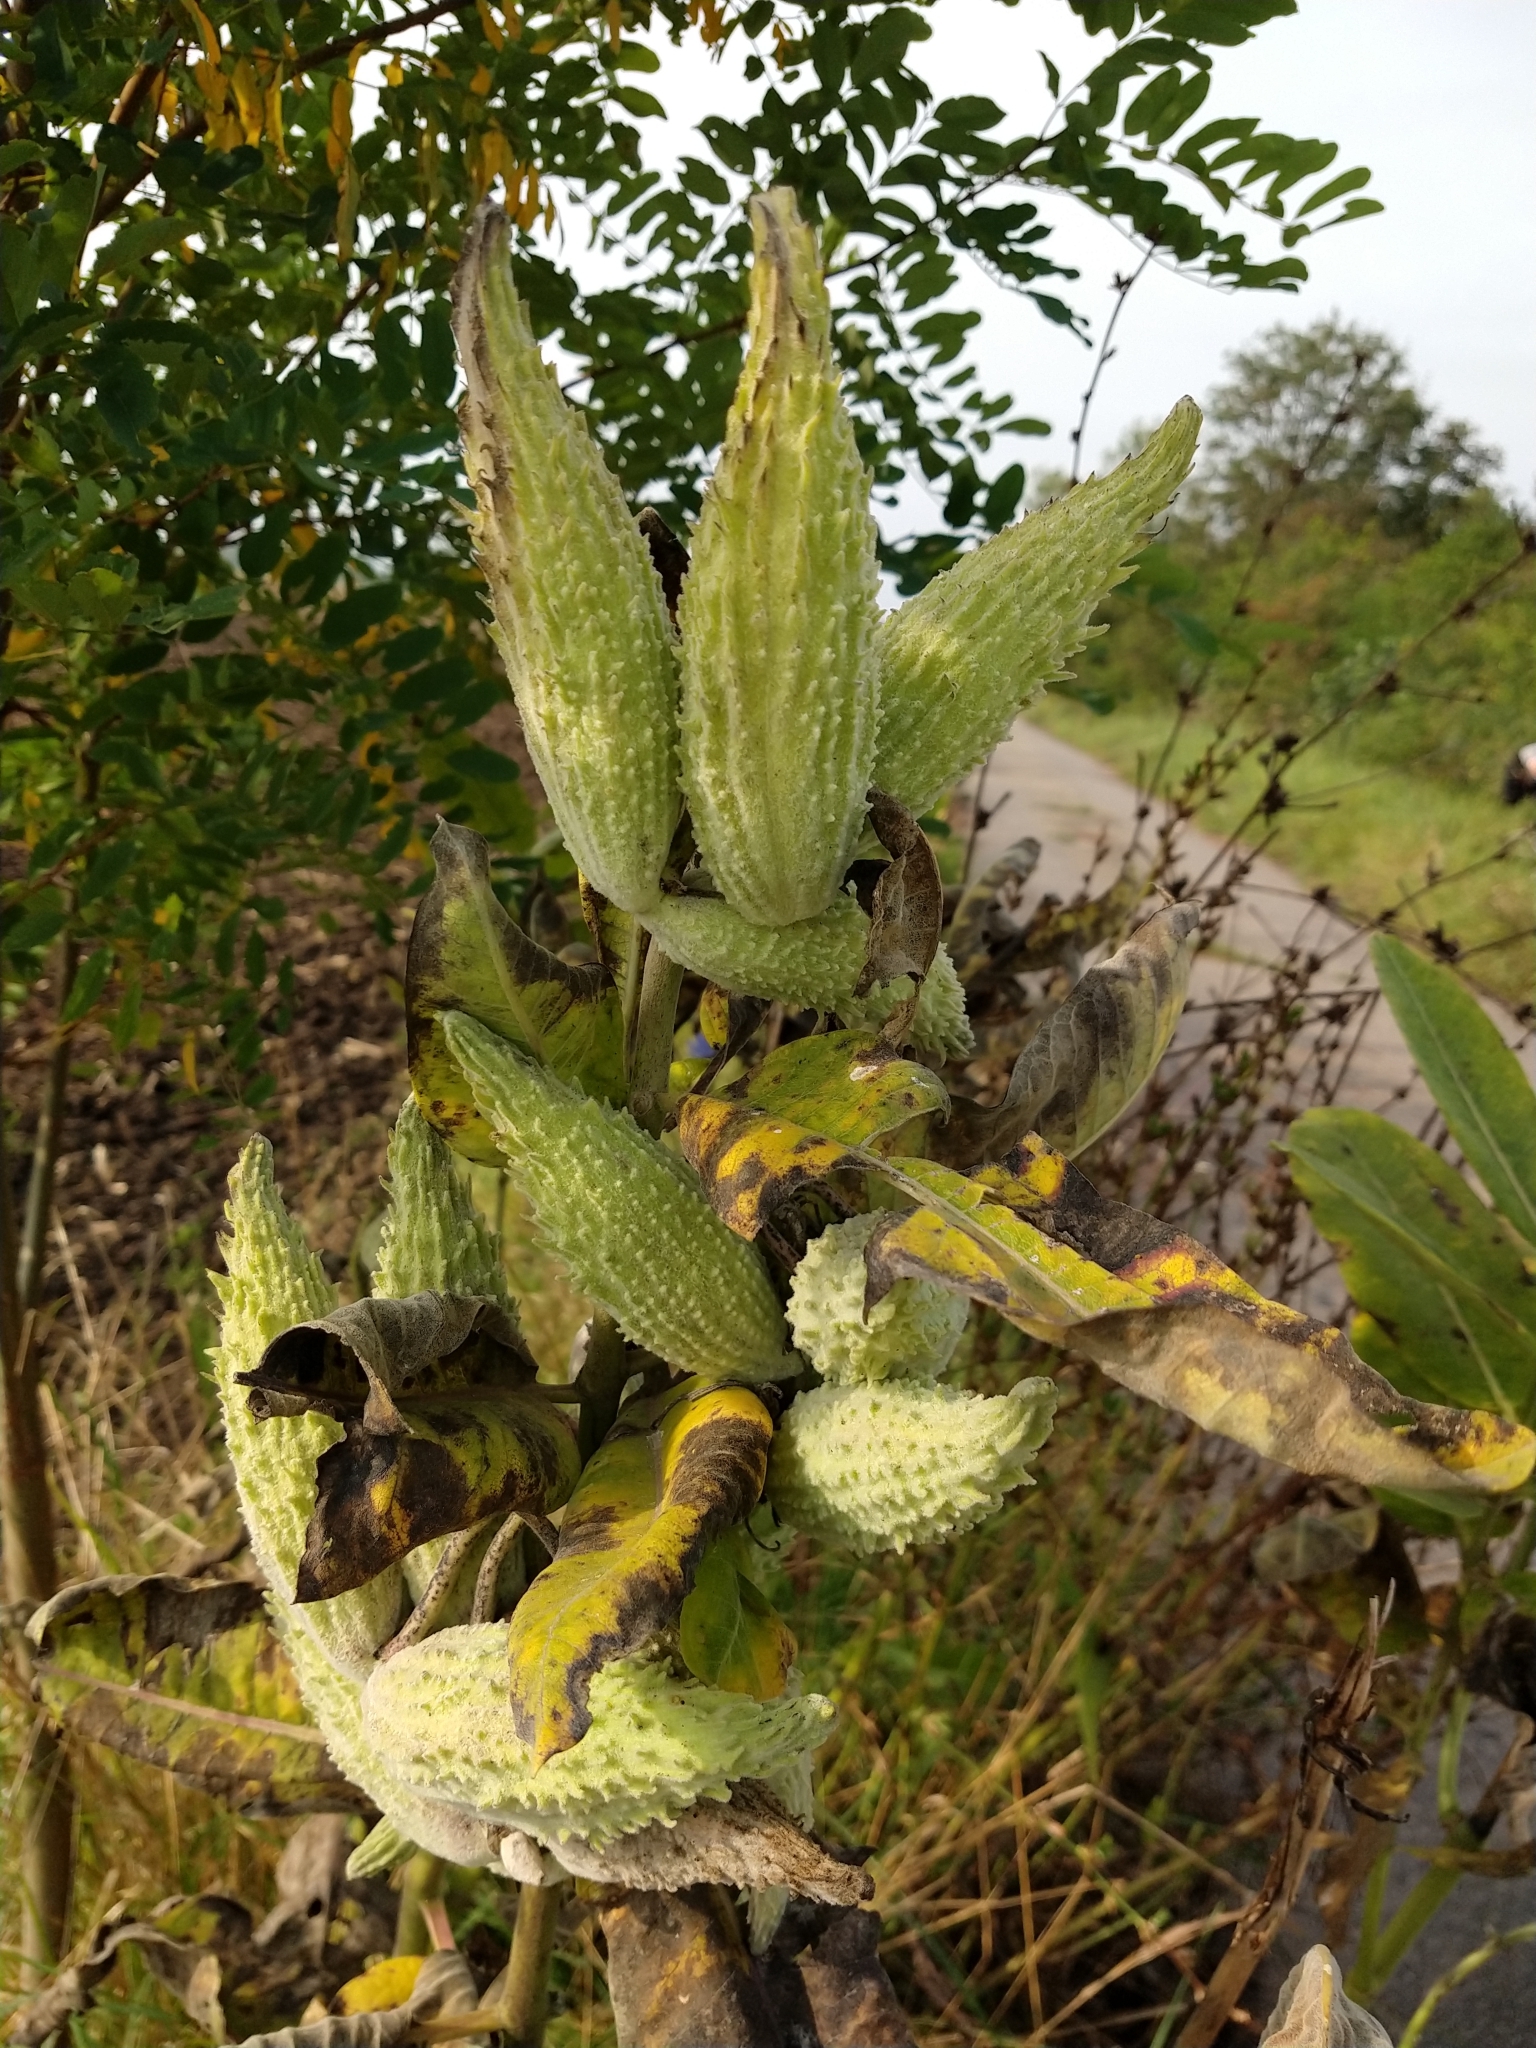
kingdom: Plantae
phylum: Tracheophyta
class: Magnoliopsida
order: Gentianales
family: Apocynaceae
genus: Asclepias
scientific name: Asclepias syriaca
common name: Common milkweed
